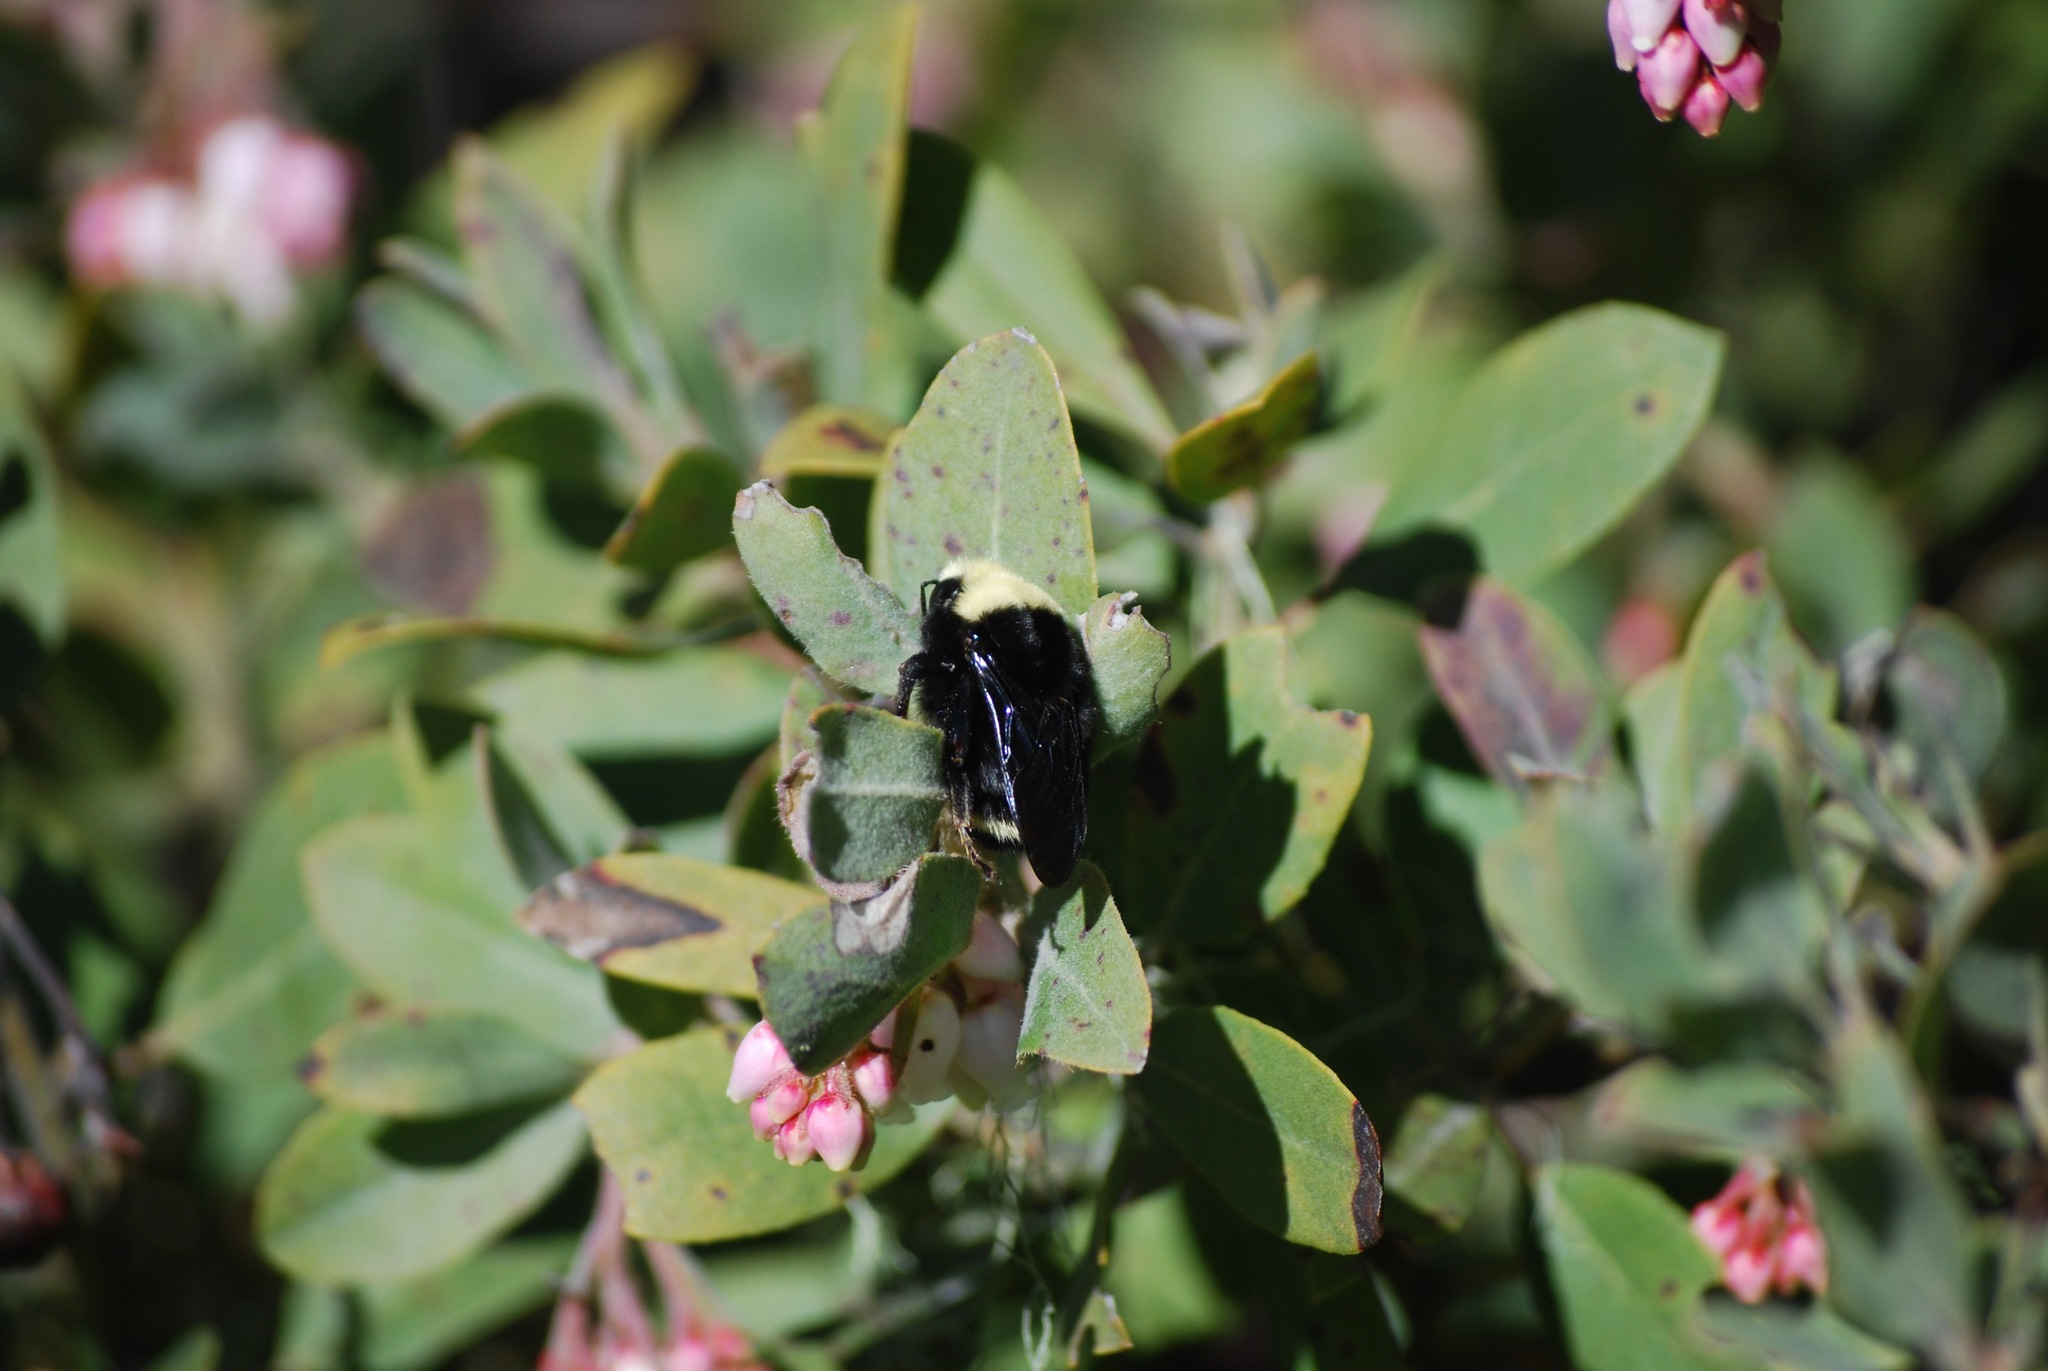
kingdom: Animalia
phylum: Arthropoda
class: Insecta
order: Hymenoptera
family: Apidae
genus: Bombus
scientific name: Bombus vosnesenskii
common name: Vosnesensky bumble bee
